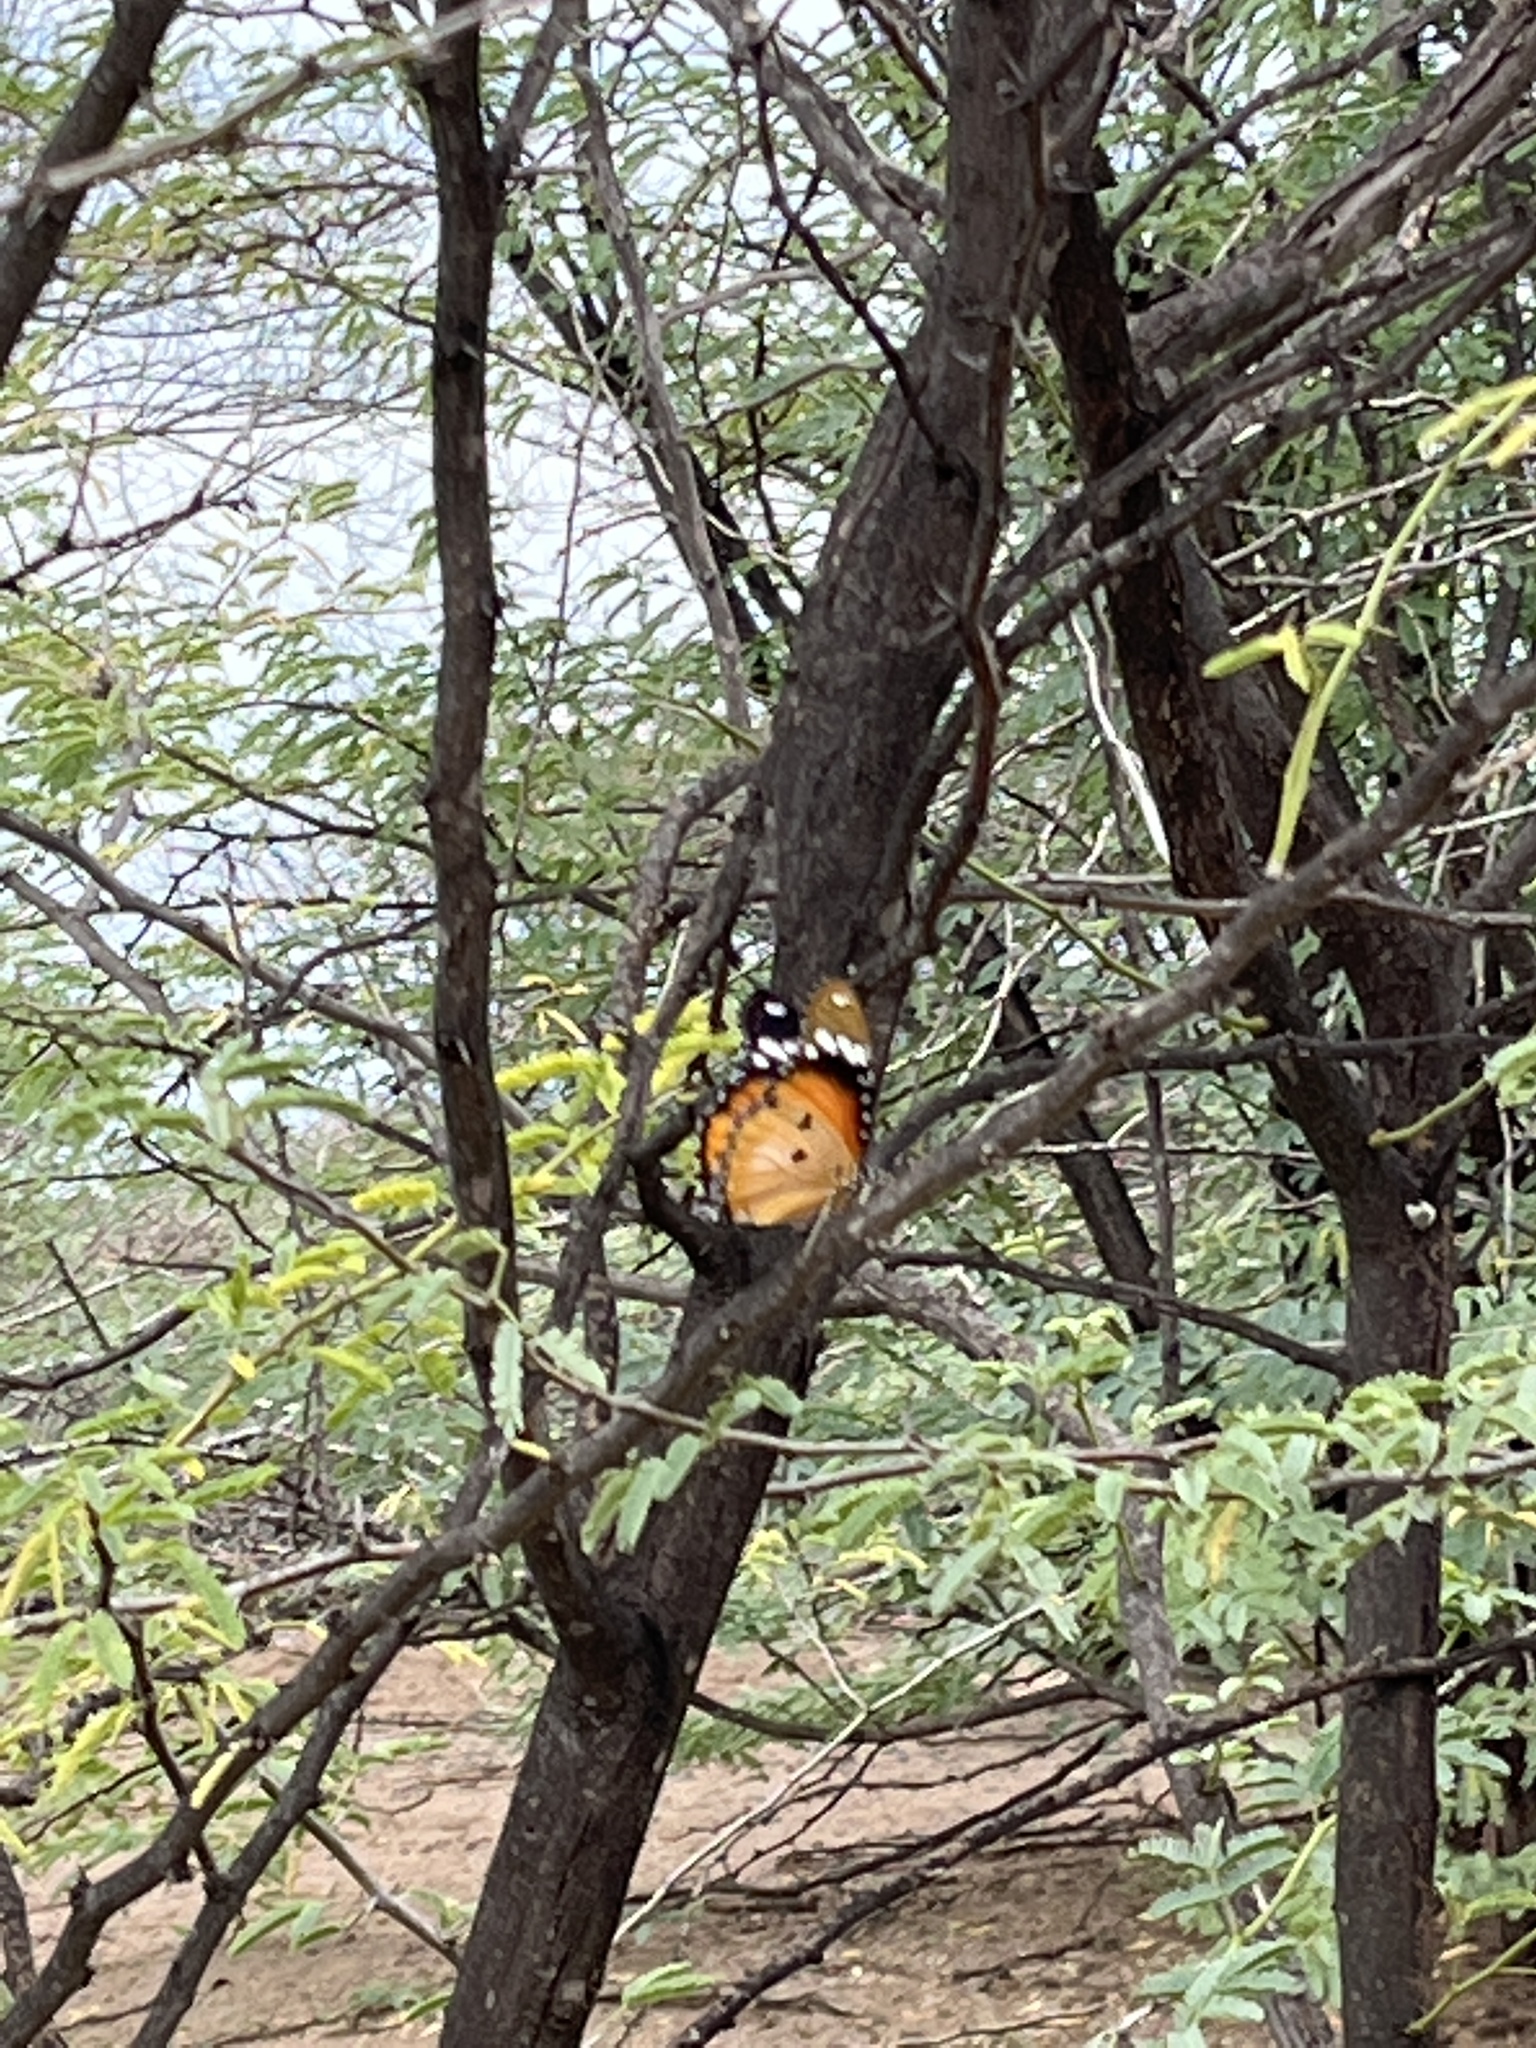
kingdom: Animalia
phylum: Arthropoda
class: Insecta
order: Lepidoptera
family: Nymphalidae
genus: Hypolimnas
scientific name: Hypolimnas misippus
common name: False plain tiger
